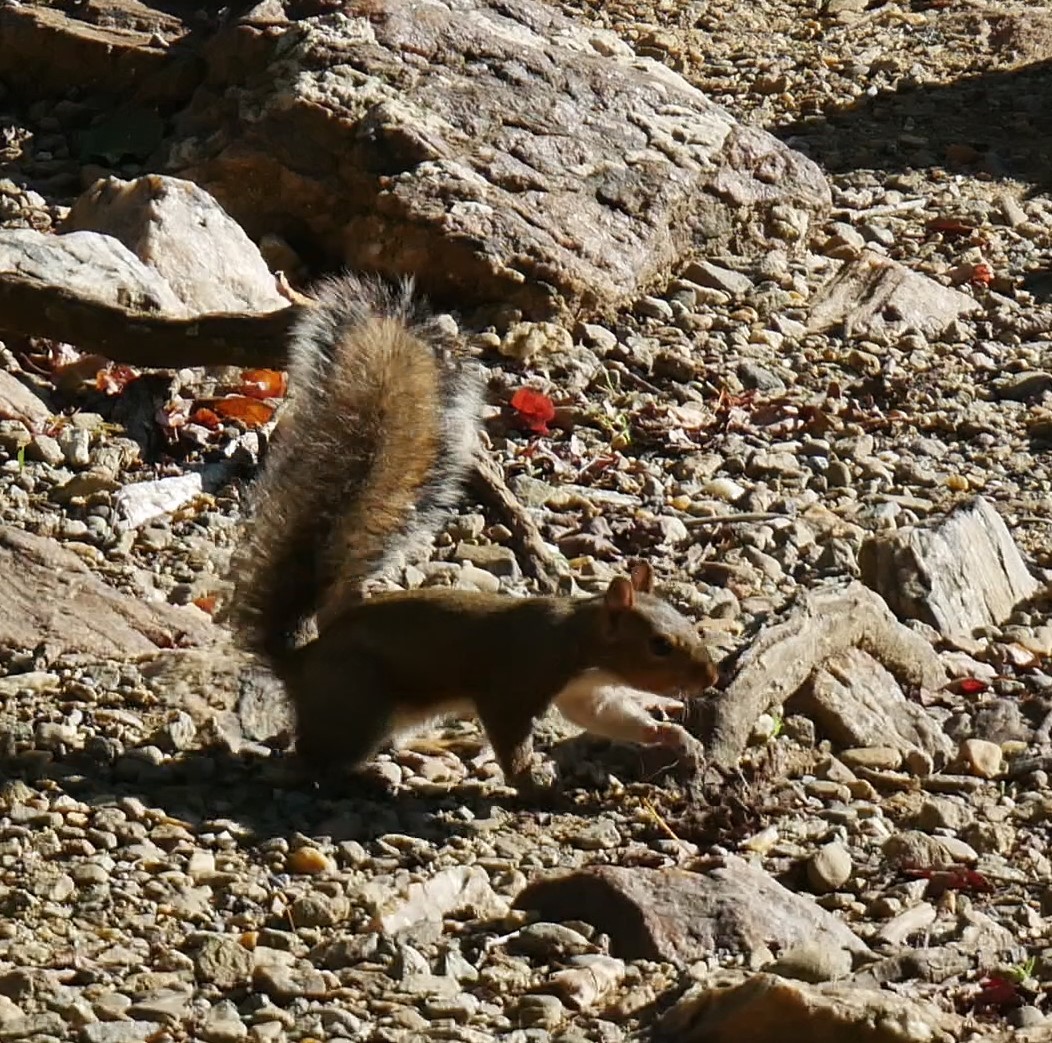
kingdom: Animalia
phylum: Chordata
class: Mammalia
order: Rodentia
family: Sciuridae
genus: Sciurus
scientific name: Sciurus carolinensis
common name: Eastern gray squirrel
